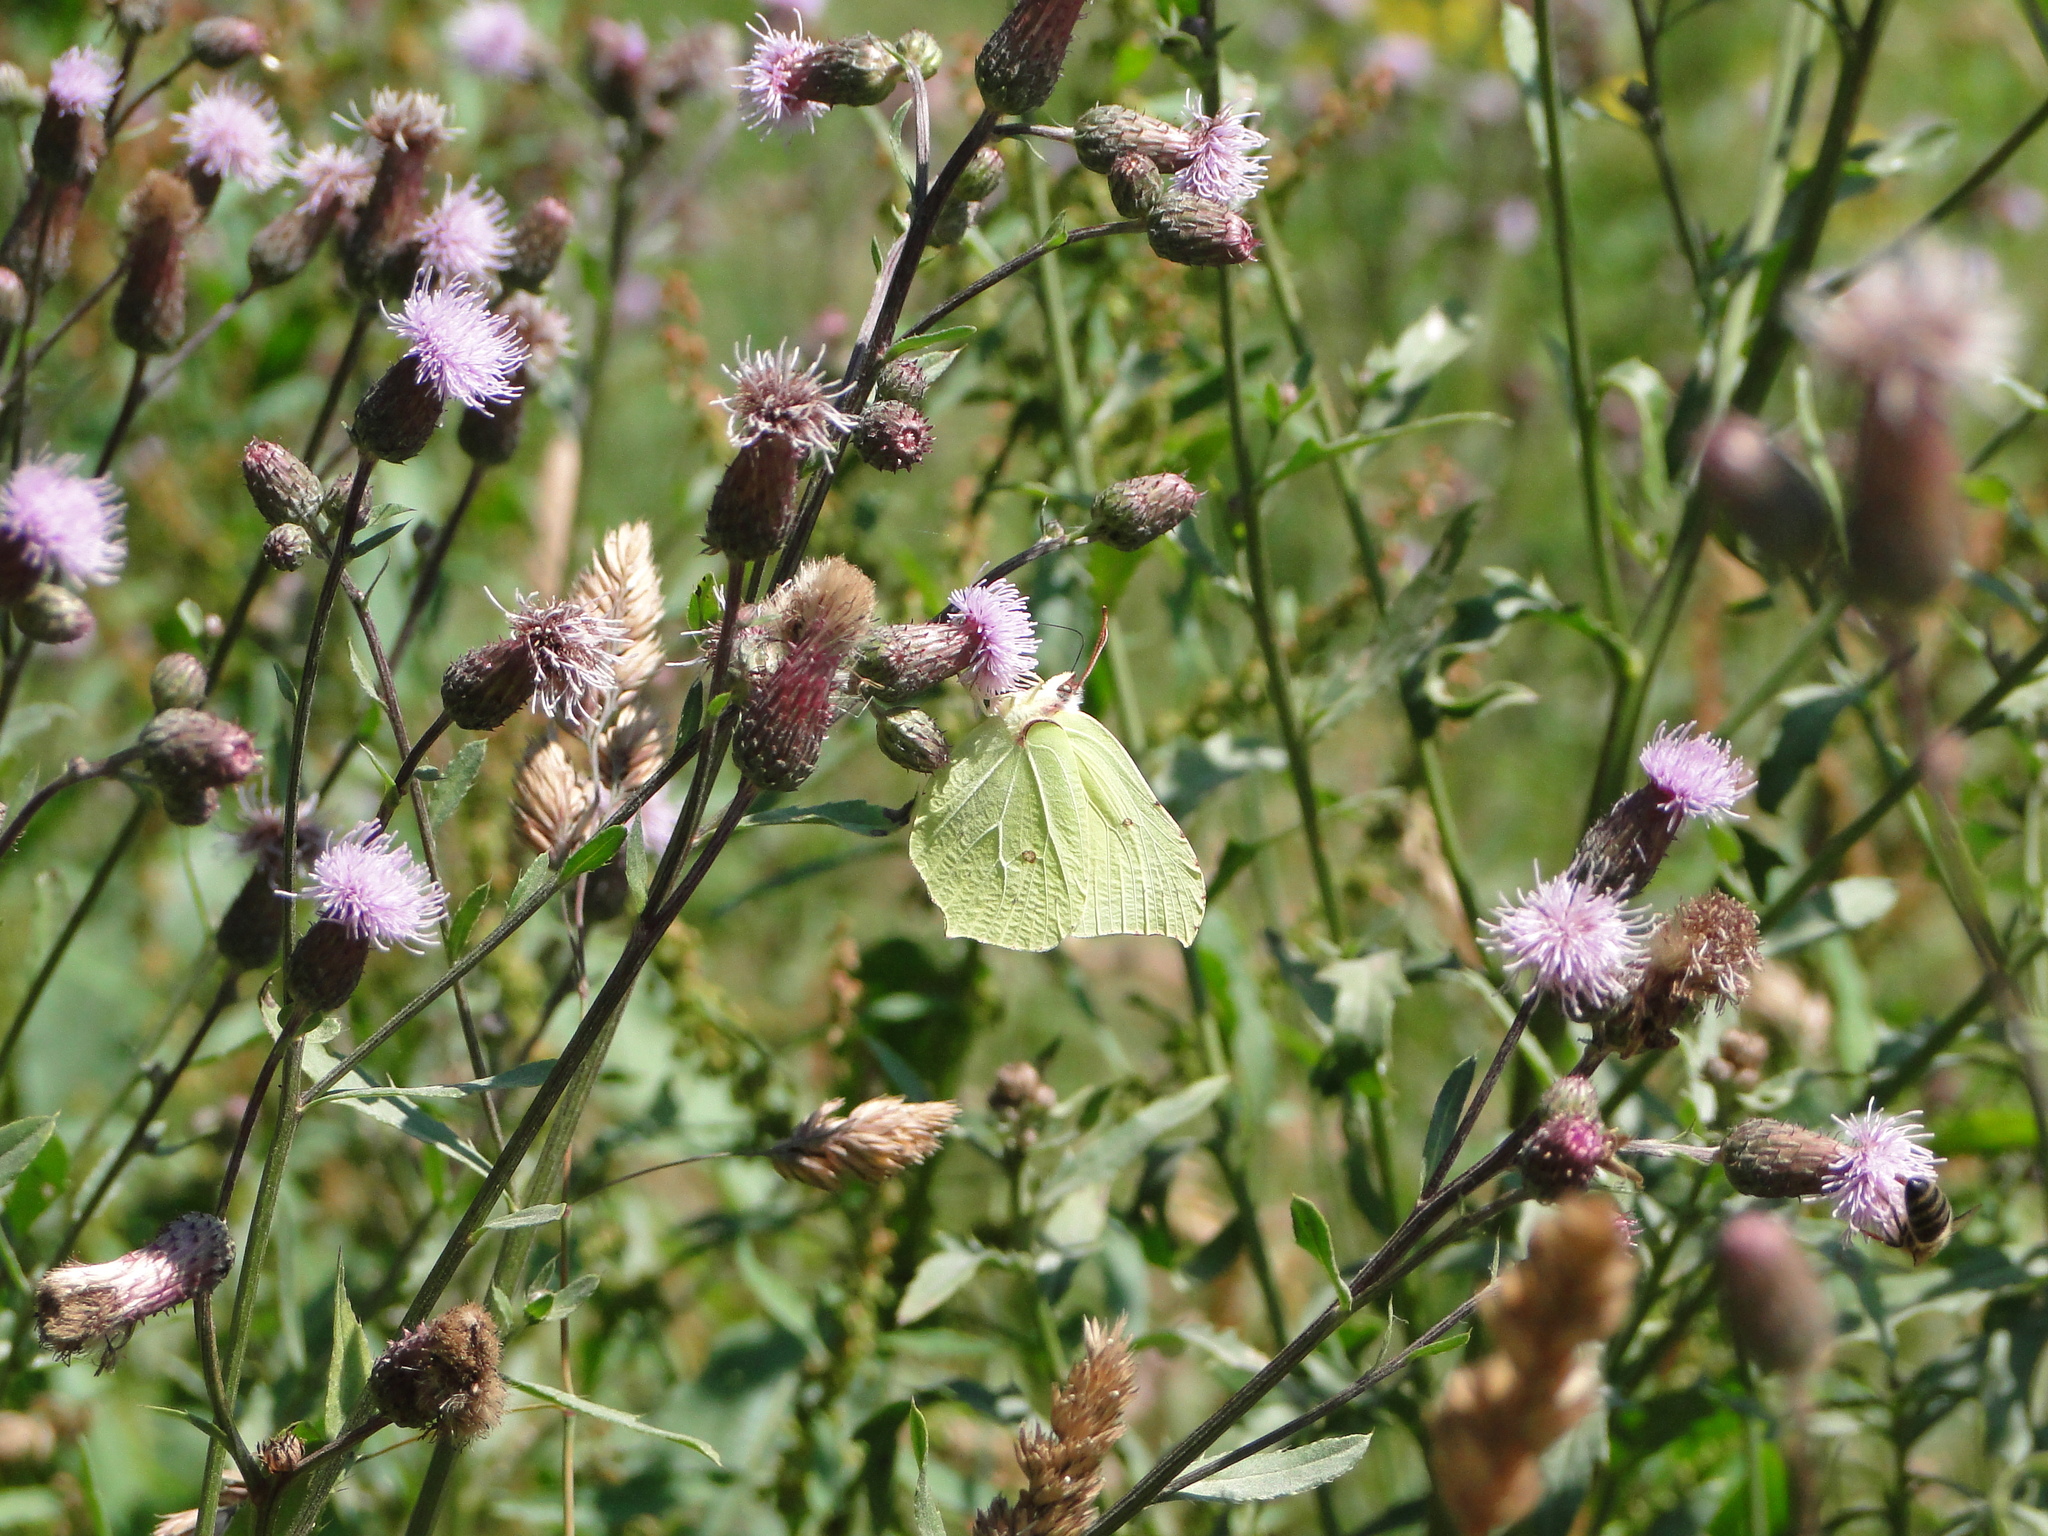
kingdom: Animalia
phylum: Arthropoda
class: Insecta
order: Lepidoptera
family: Pieridae
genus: Gonepteryx
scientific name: Gonepteryx rhamni
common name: Brimstone
